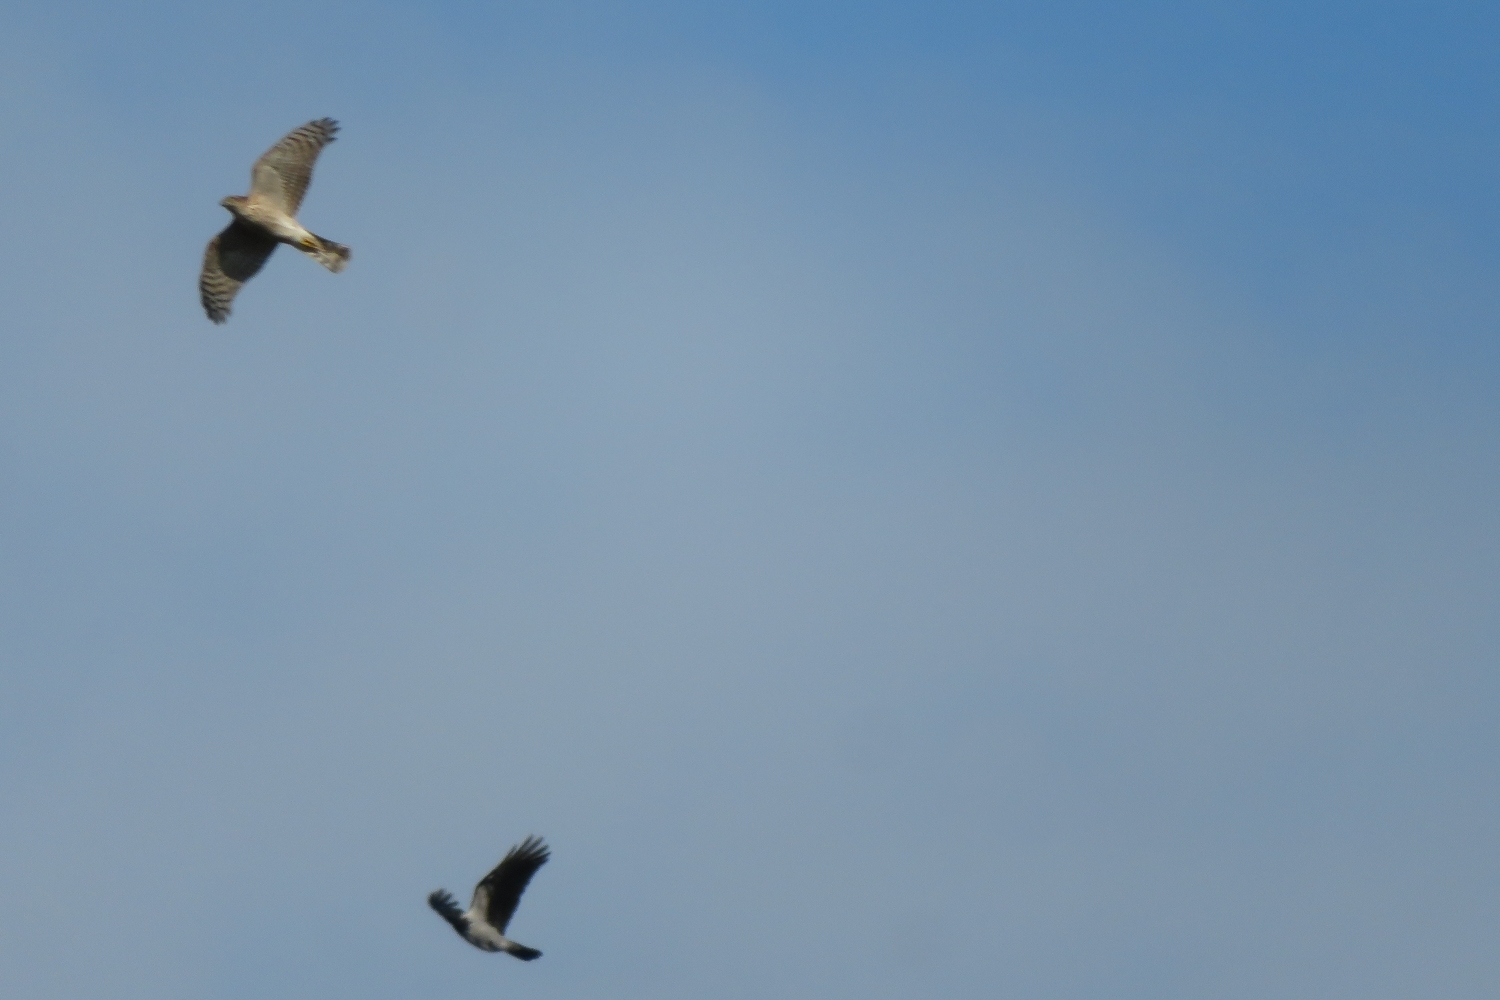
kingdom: Animalia
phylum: Chordata
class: Aves
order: Accipitriformes
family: Accipitridae
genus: Accipiter
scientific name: Accipiter nisus
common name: Eurasian sparrowhawk
